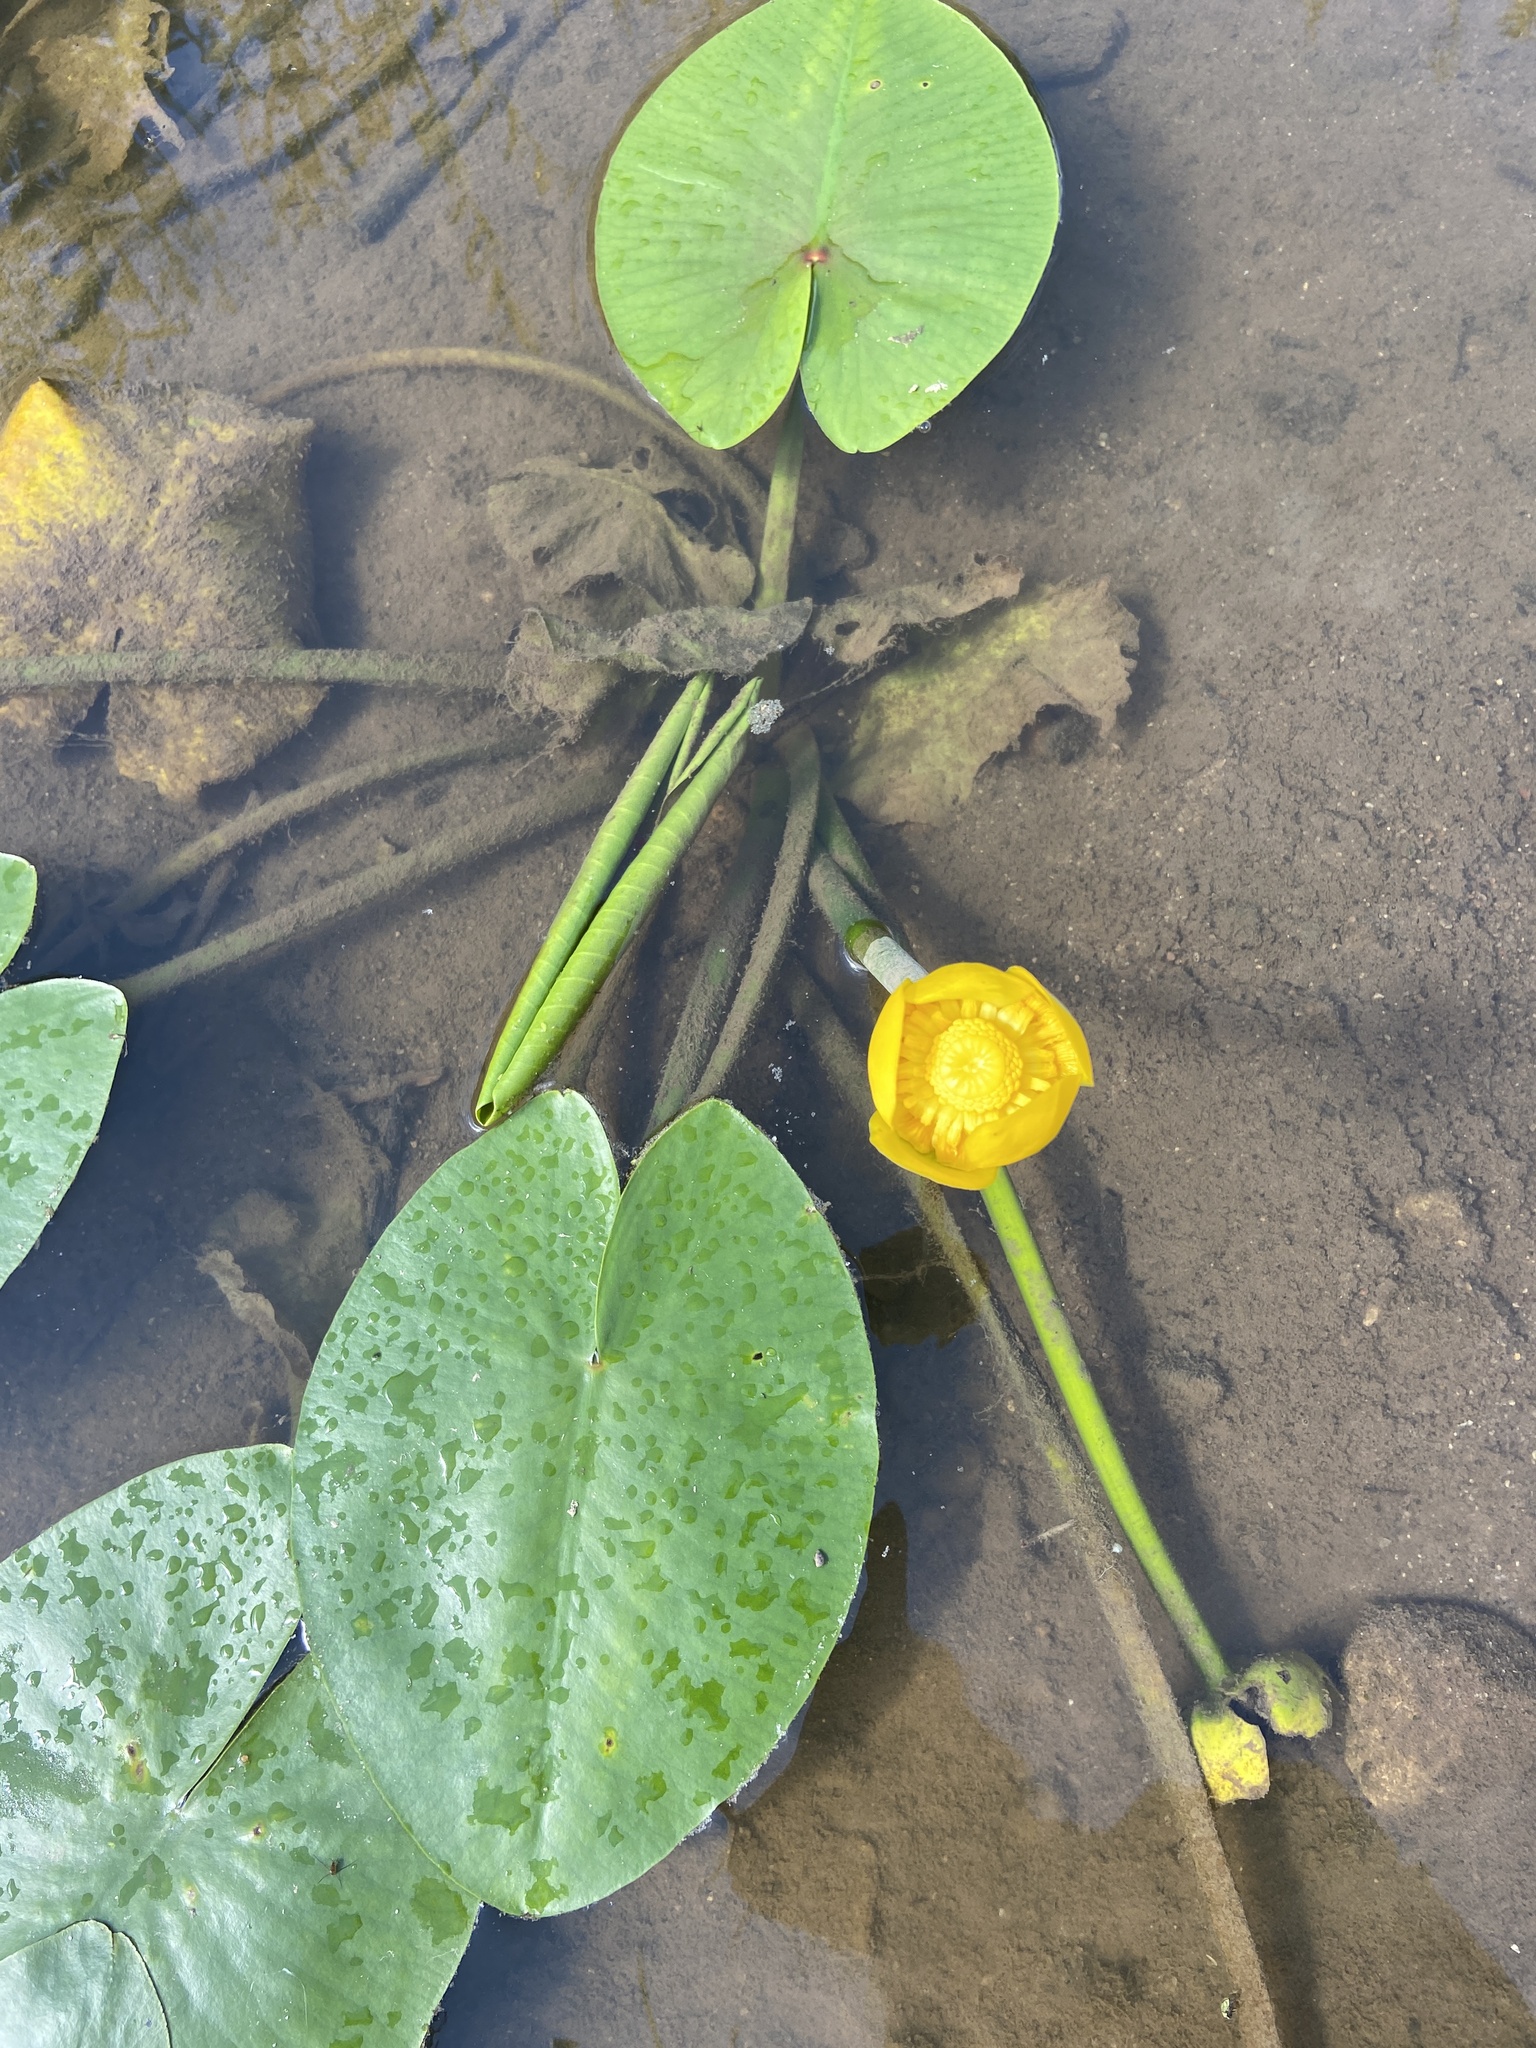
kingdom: Plantae
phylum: Tracheophyta
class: Magnoliopsida
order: Nymphaeales
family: Nymphaeaceae
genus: Nuphar
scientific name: Nuphar lutea
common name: Yellow water-lily
